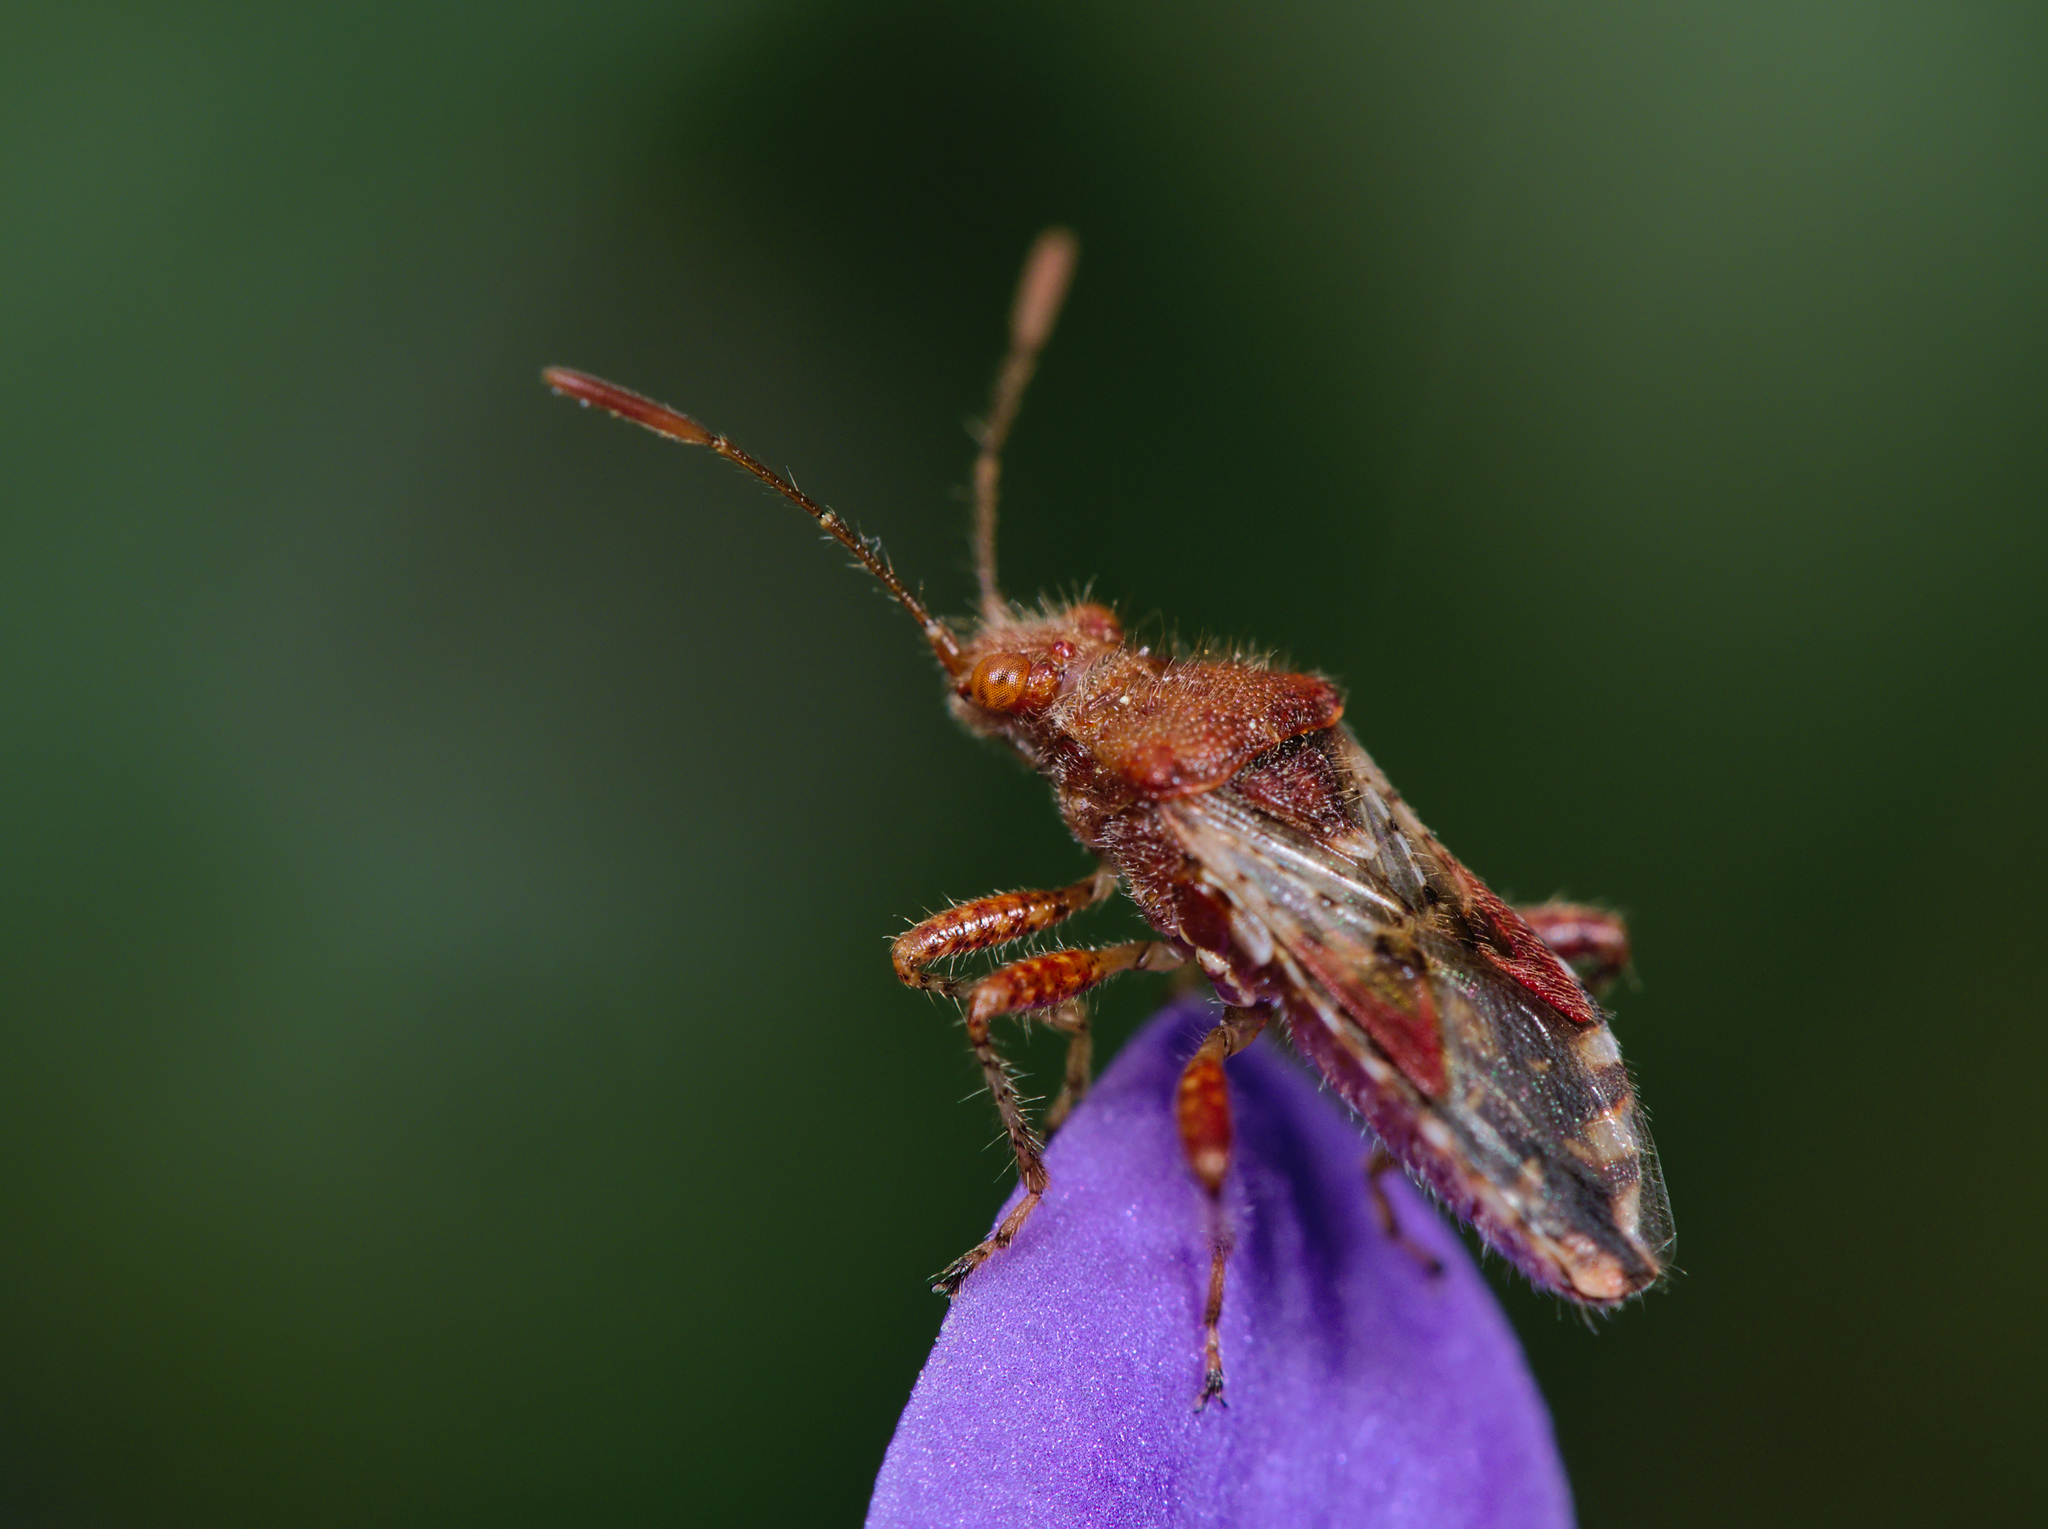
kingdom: Animalia
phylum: Arthropoda
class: Insecta
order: Hemiptera
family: Rhopalidae
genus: Rhopalus
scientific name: Rhopalus subrufus
